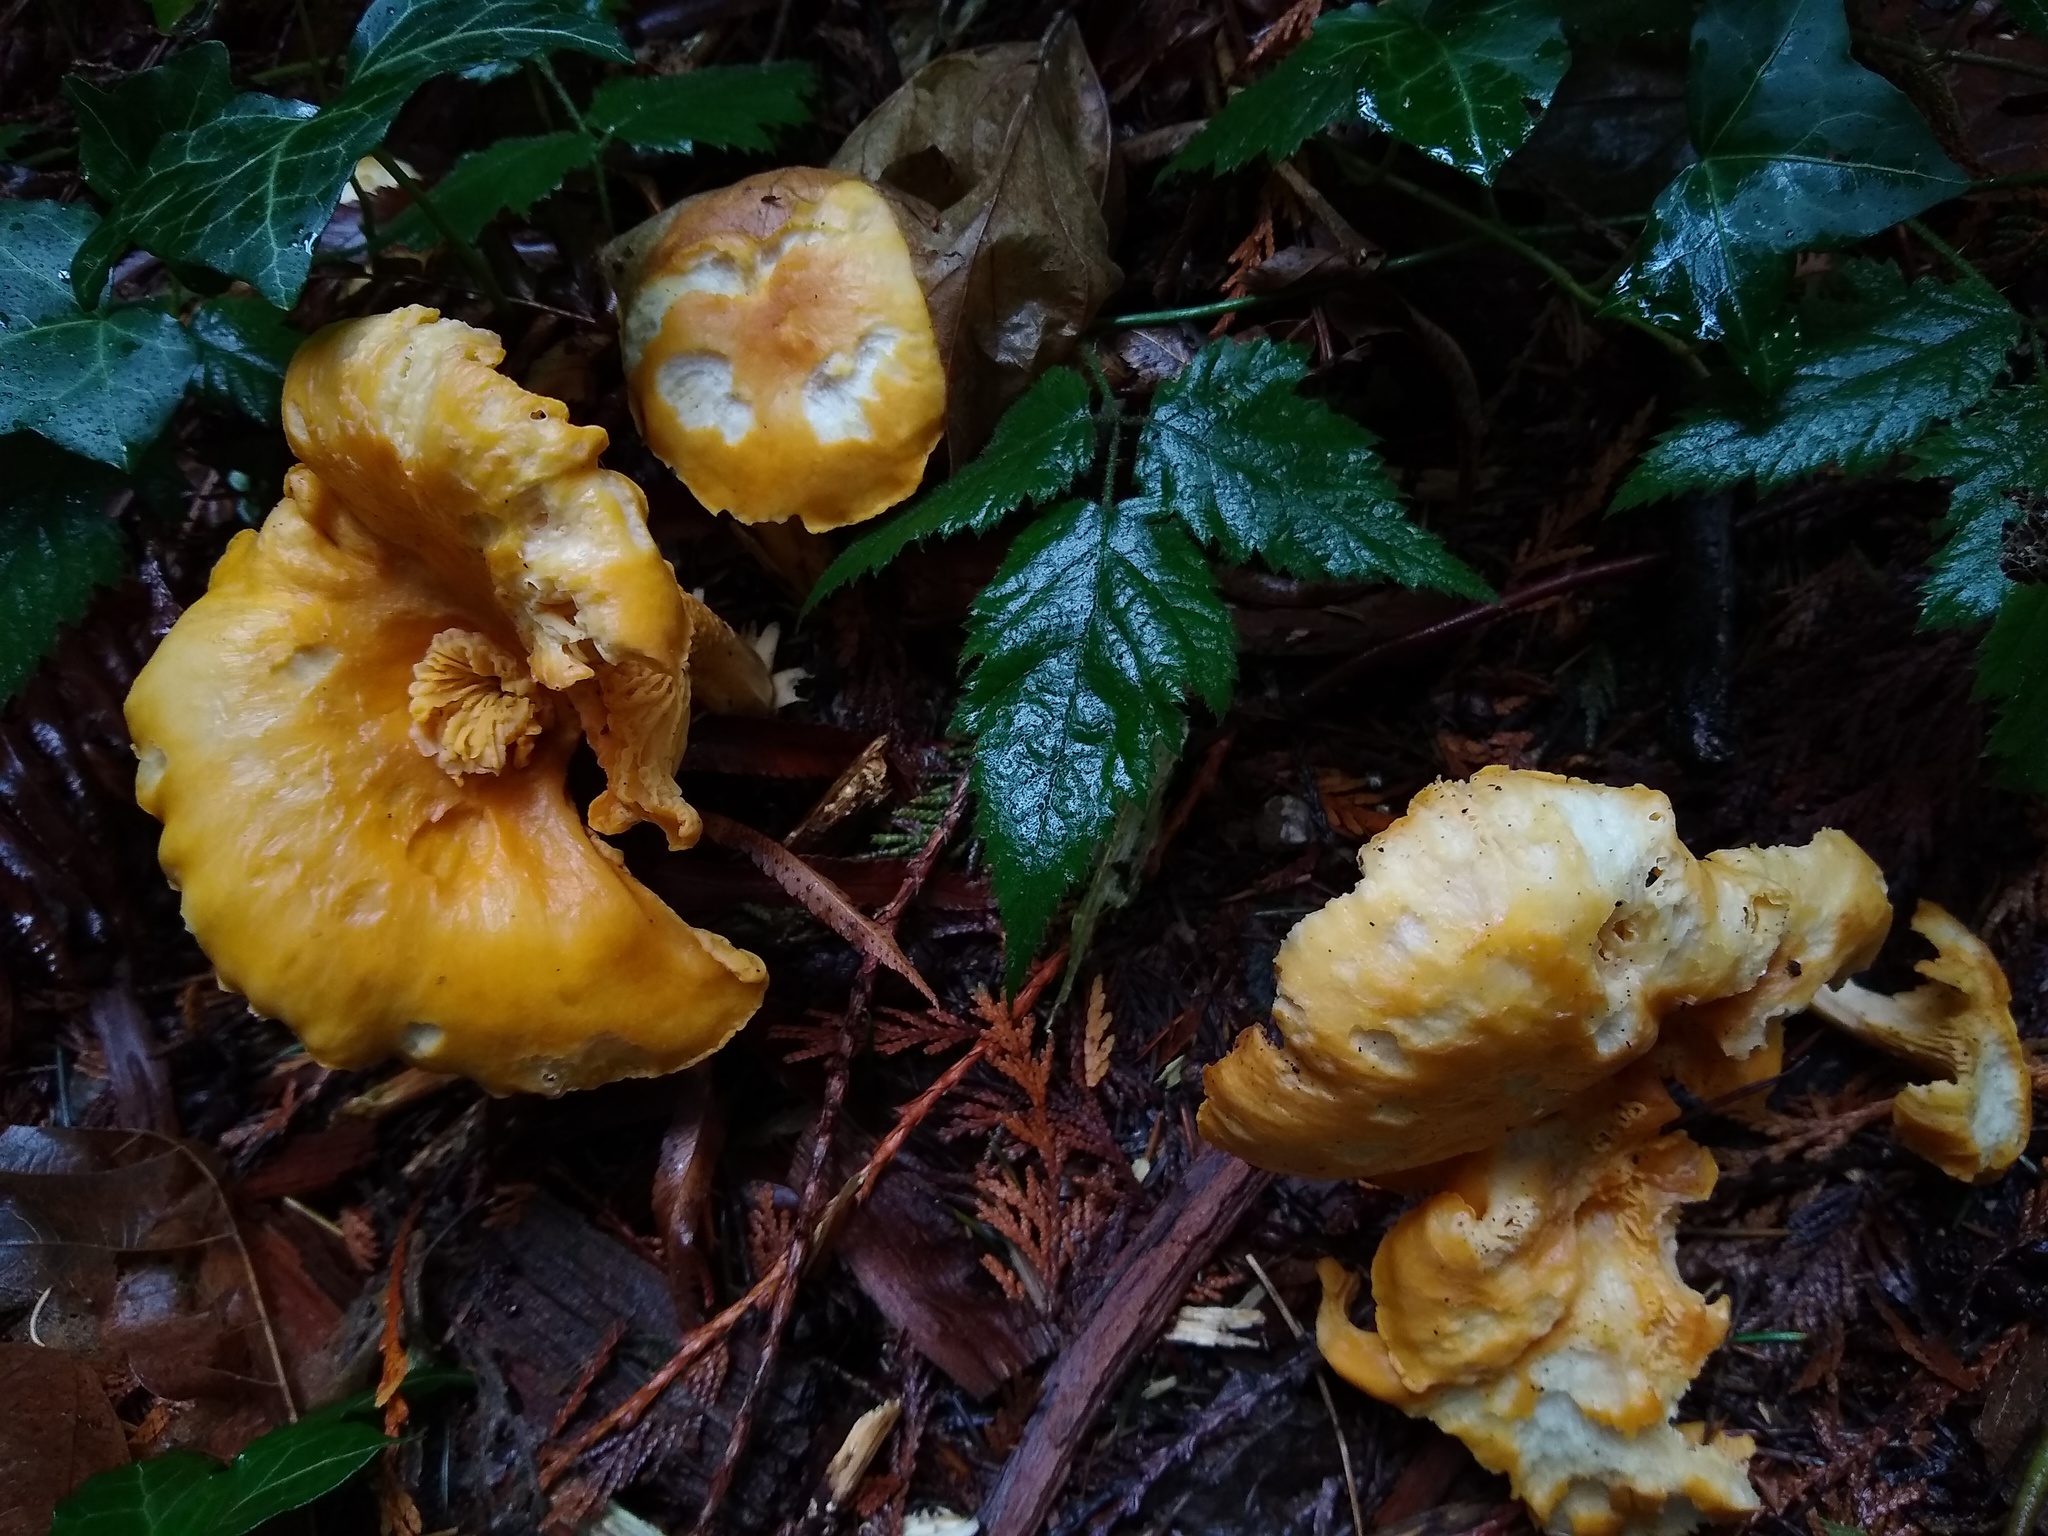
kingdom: Fungi
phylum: Basidiomycota
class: Agaricomycetes
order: Cantharellales
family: Hydnaceae
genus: Cantharellus
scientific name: Cantharellus formosus
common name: Pacific golden chanterelle
